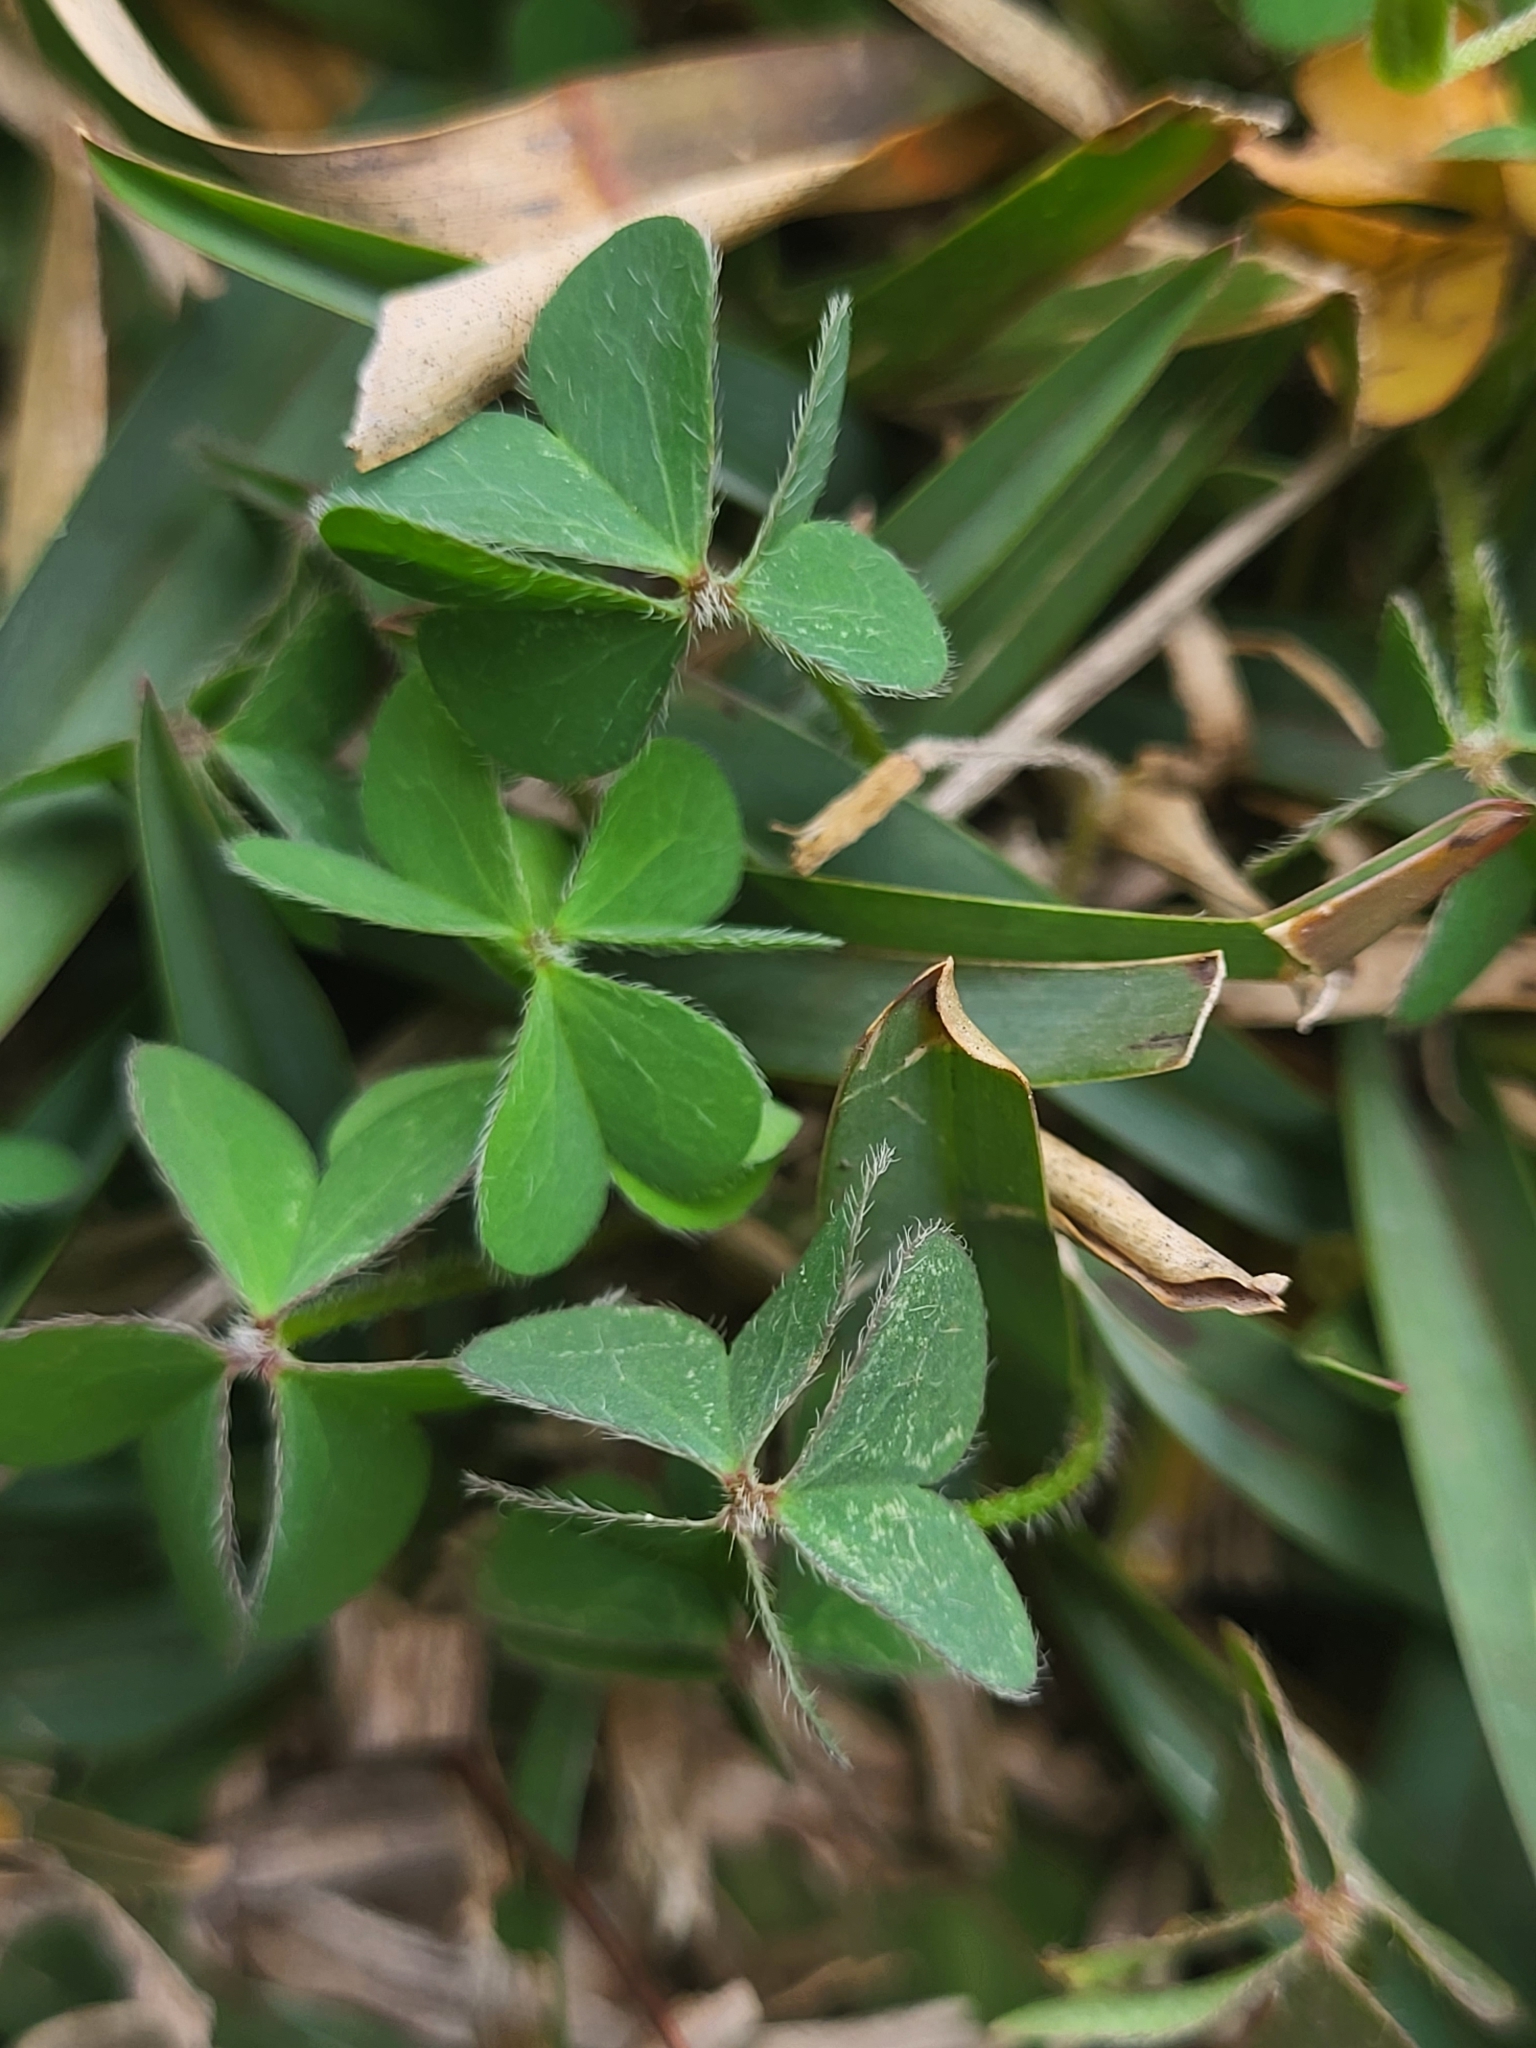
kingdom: Plantae
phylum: Tracheophyta
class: Magnoliopsida
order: Oxalidales
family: Oxalidaceae
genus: Oxalis
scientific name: Oxalis corniculata
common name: Procumbent yellow-sorrel
